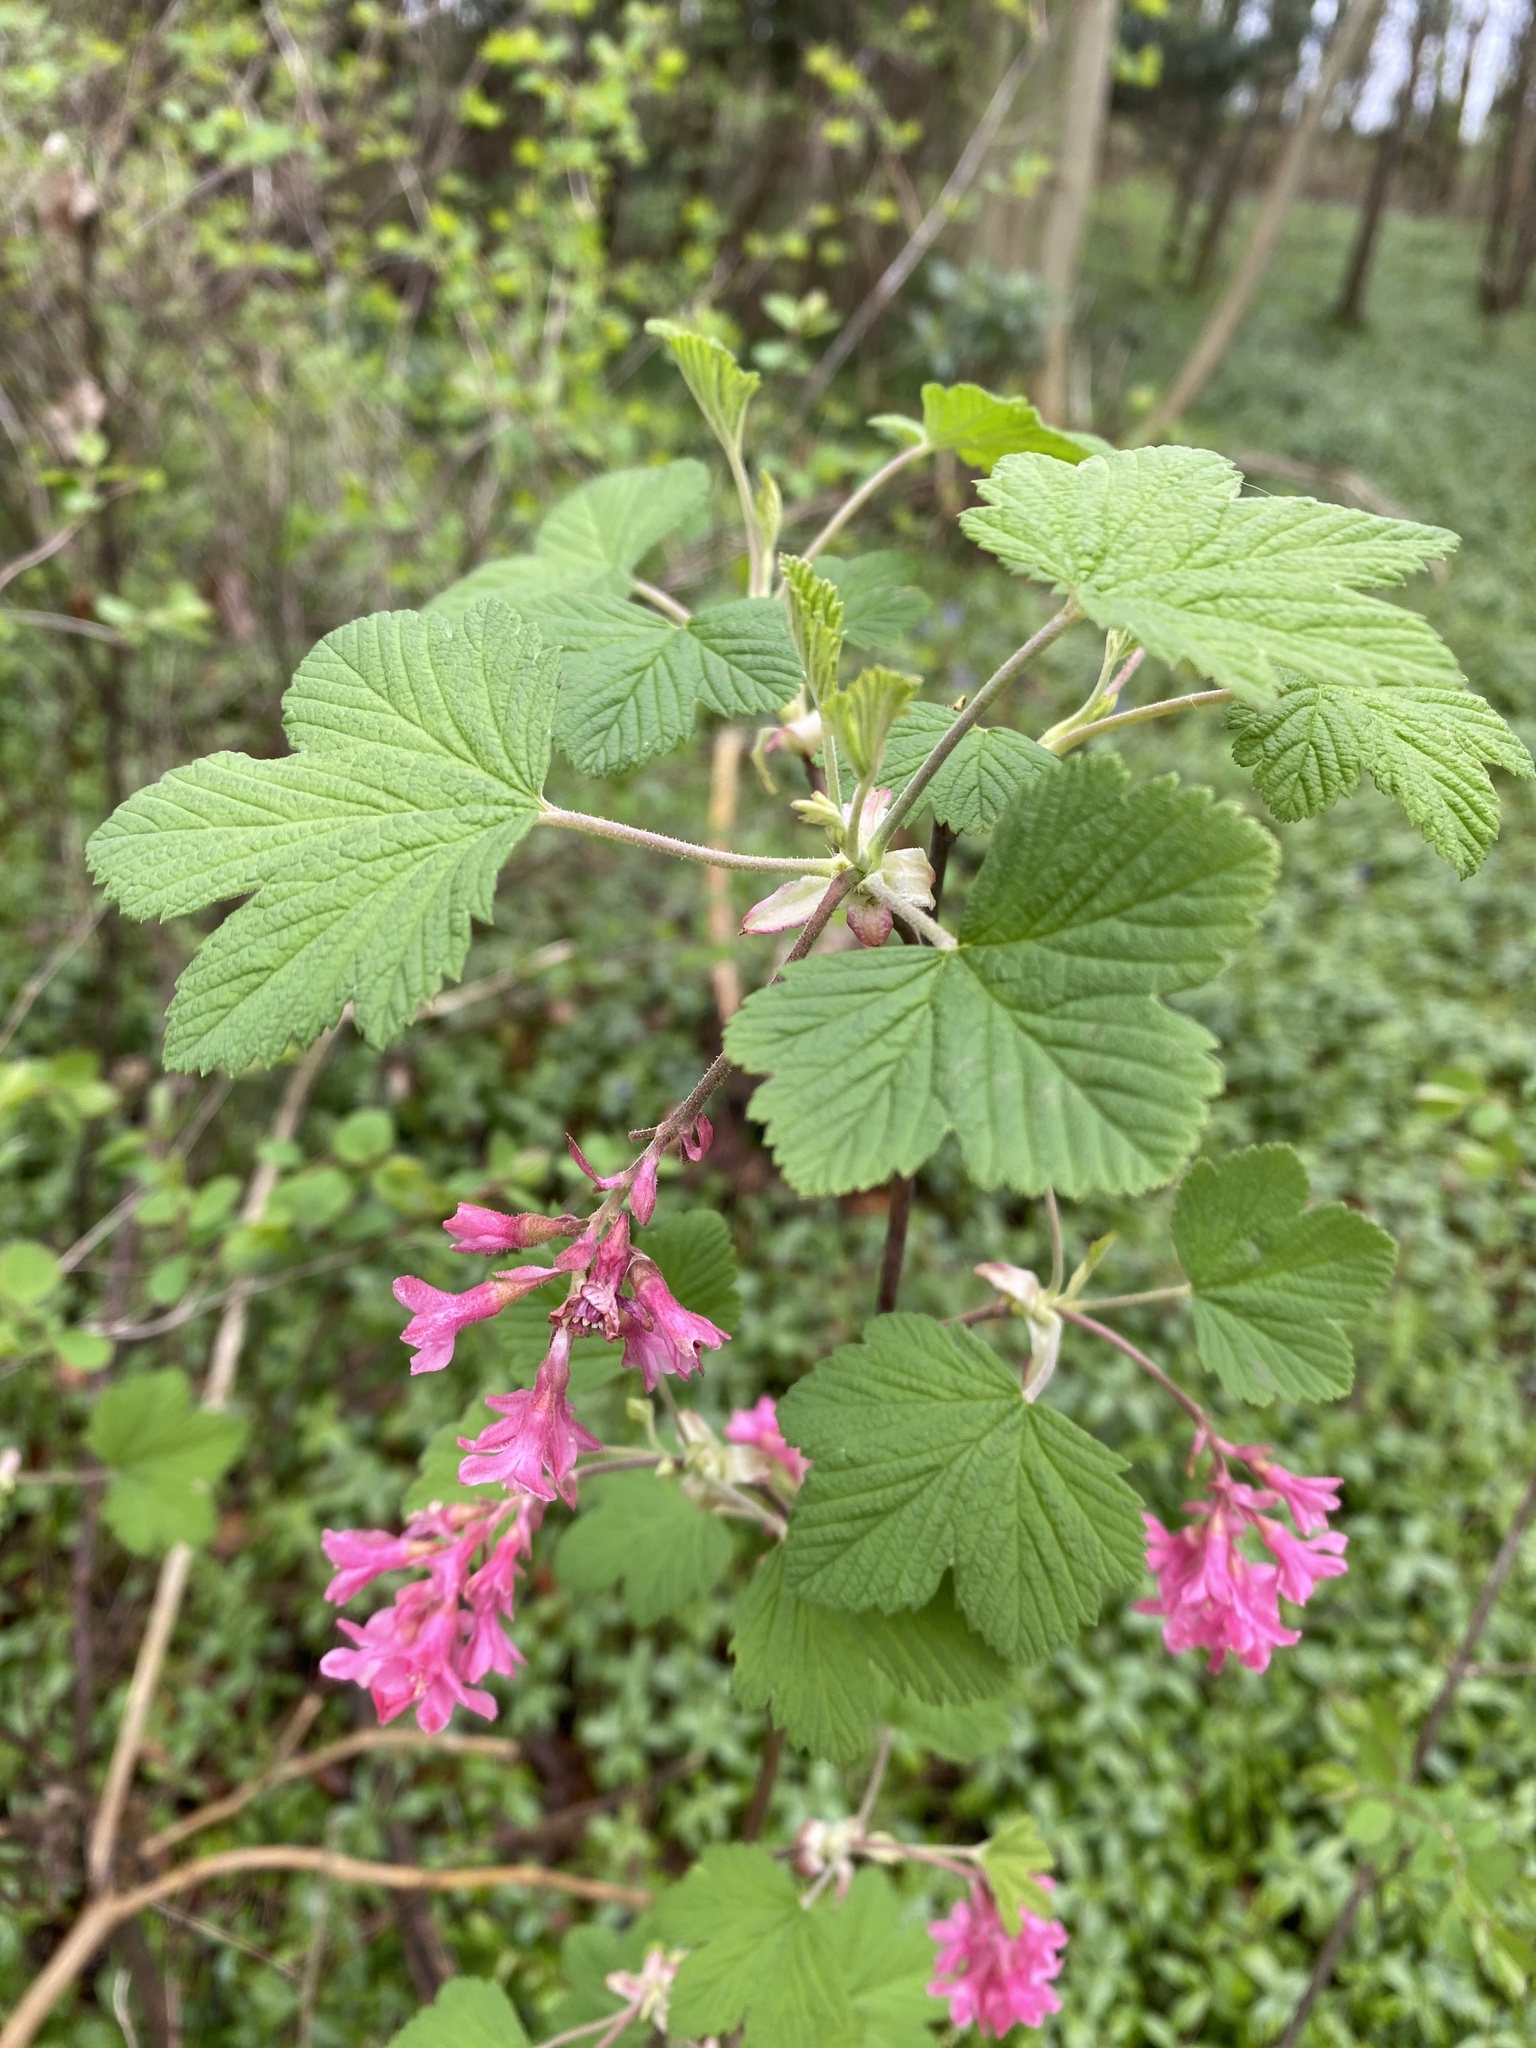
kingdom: Plantae
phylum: Tracheophyta
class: Magnoliopsida
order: Saxifragales
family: Grossulariaceae
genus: Ribes
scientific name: Ribes sanguineum
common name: Flowering currant
